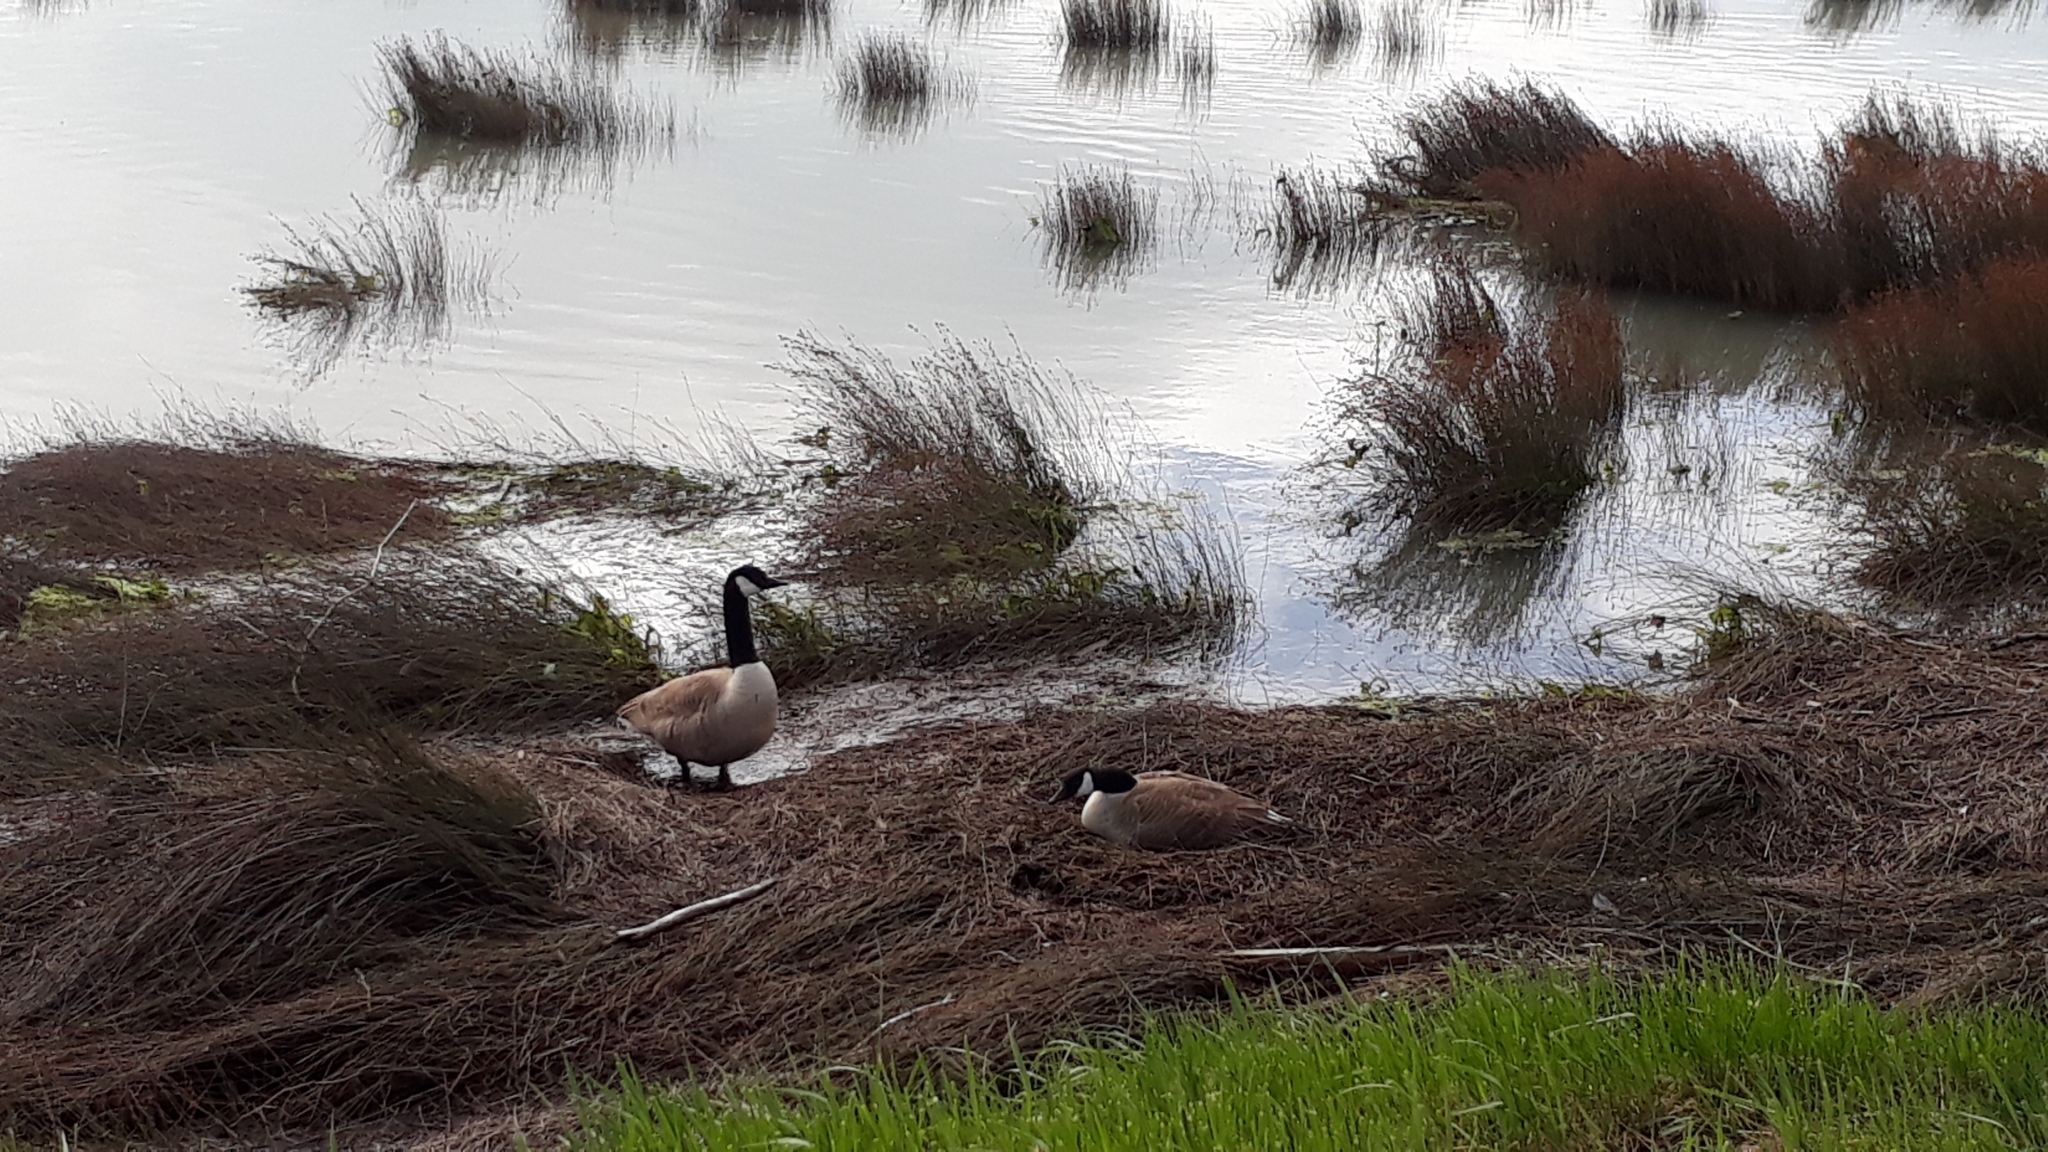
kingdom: Animalia
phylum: Chordata
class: Aves
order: Anseriformes
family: Anatidae
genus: Branta
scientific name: Branta canadensis
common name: Canada goose
